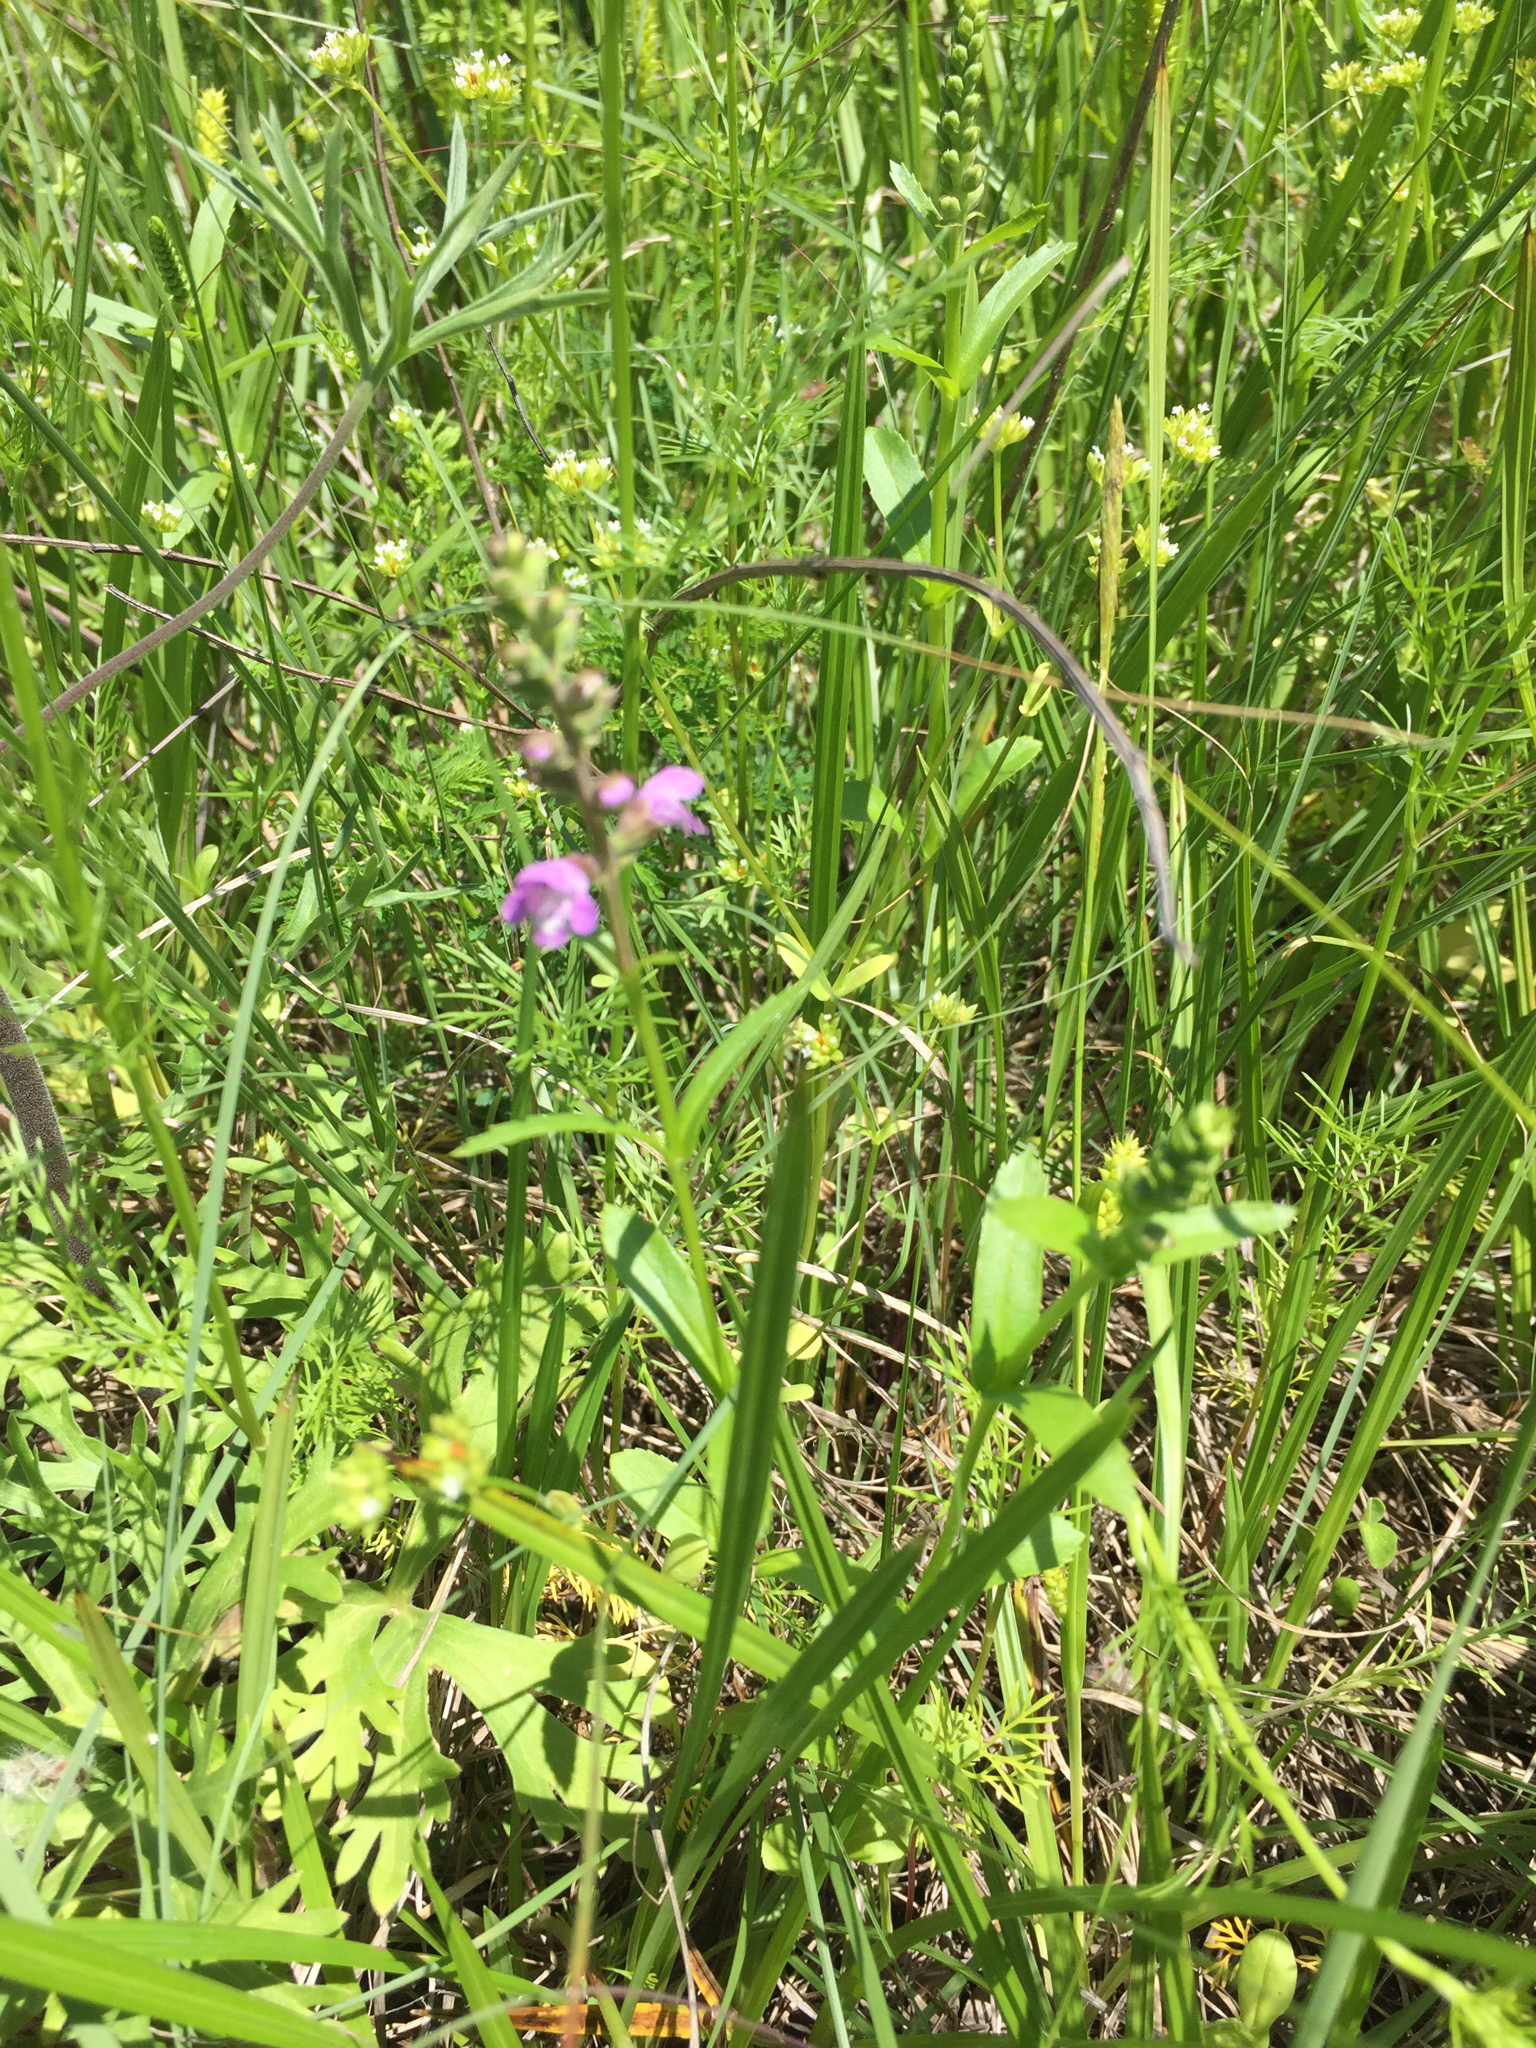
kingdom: Plantae
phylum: Tracheophyta
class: Magnoliopsida
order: Lamiales
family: Lamiaceae
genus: Warnockia
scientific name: Warnockia scutellarioides
